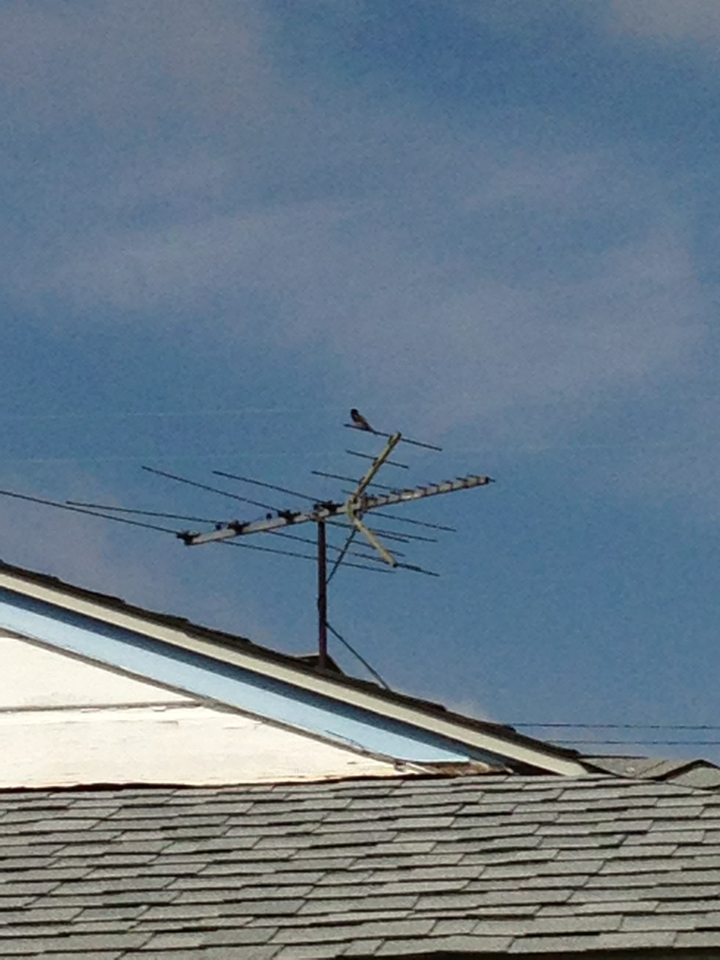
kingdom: Animalia
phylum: Chordata
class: Aves
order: Passeriformes
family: Tyrannidae
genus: Sayornis
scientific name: Sayornis nigricans
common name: Black phoebe
